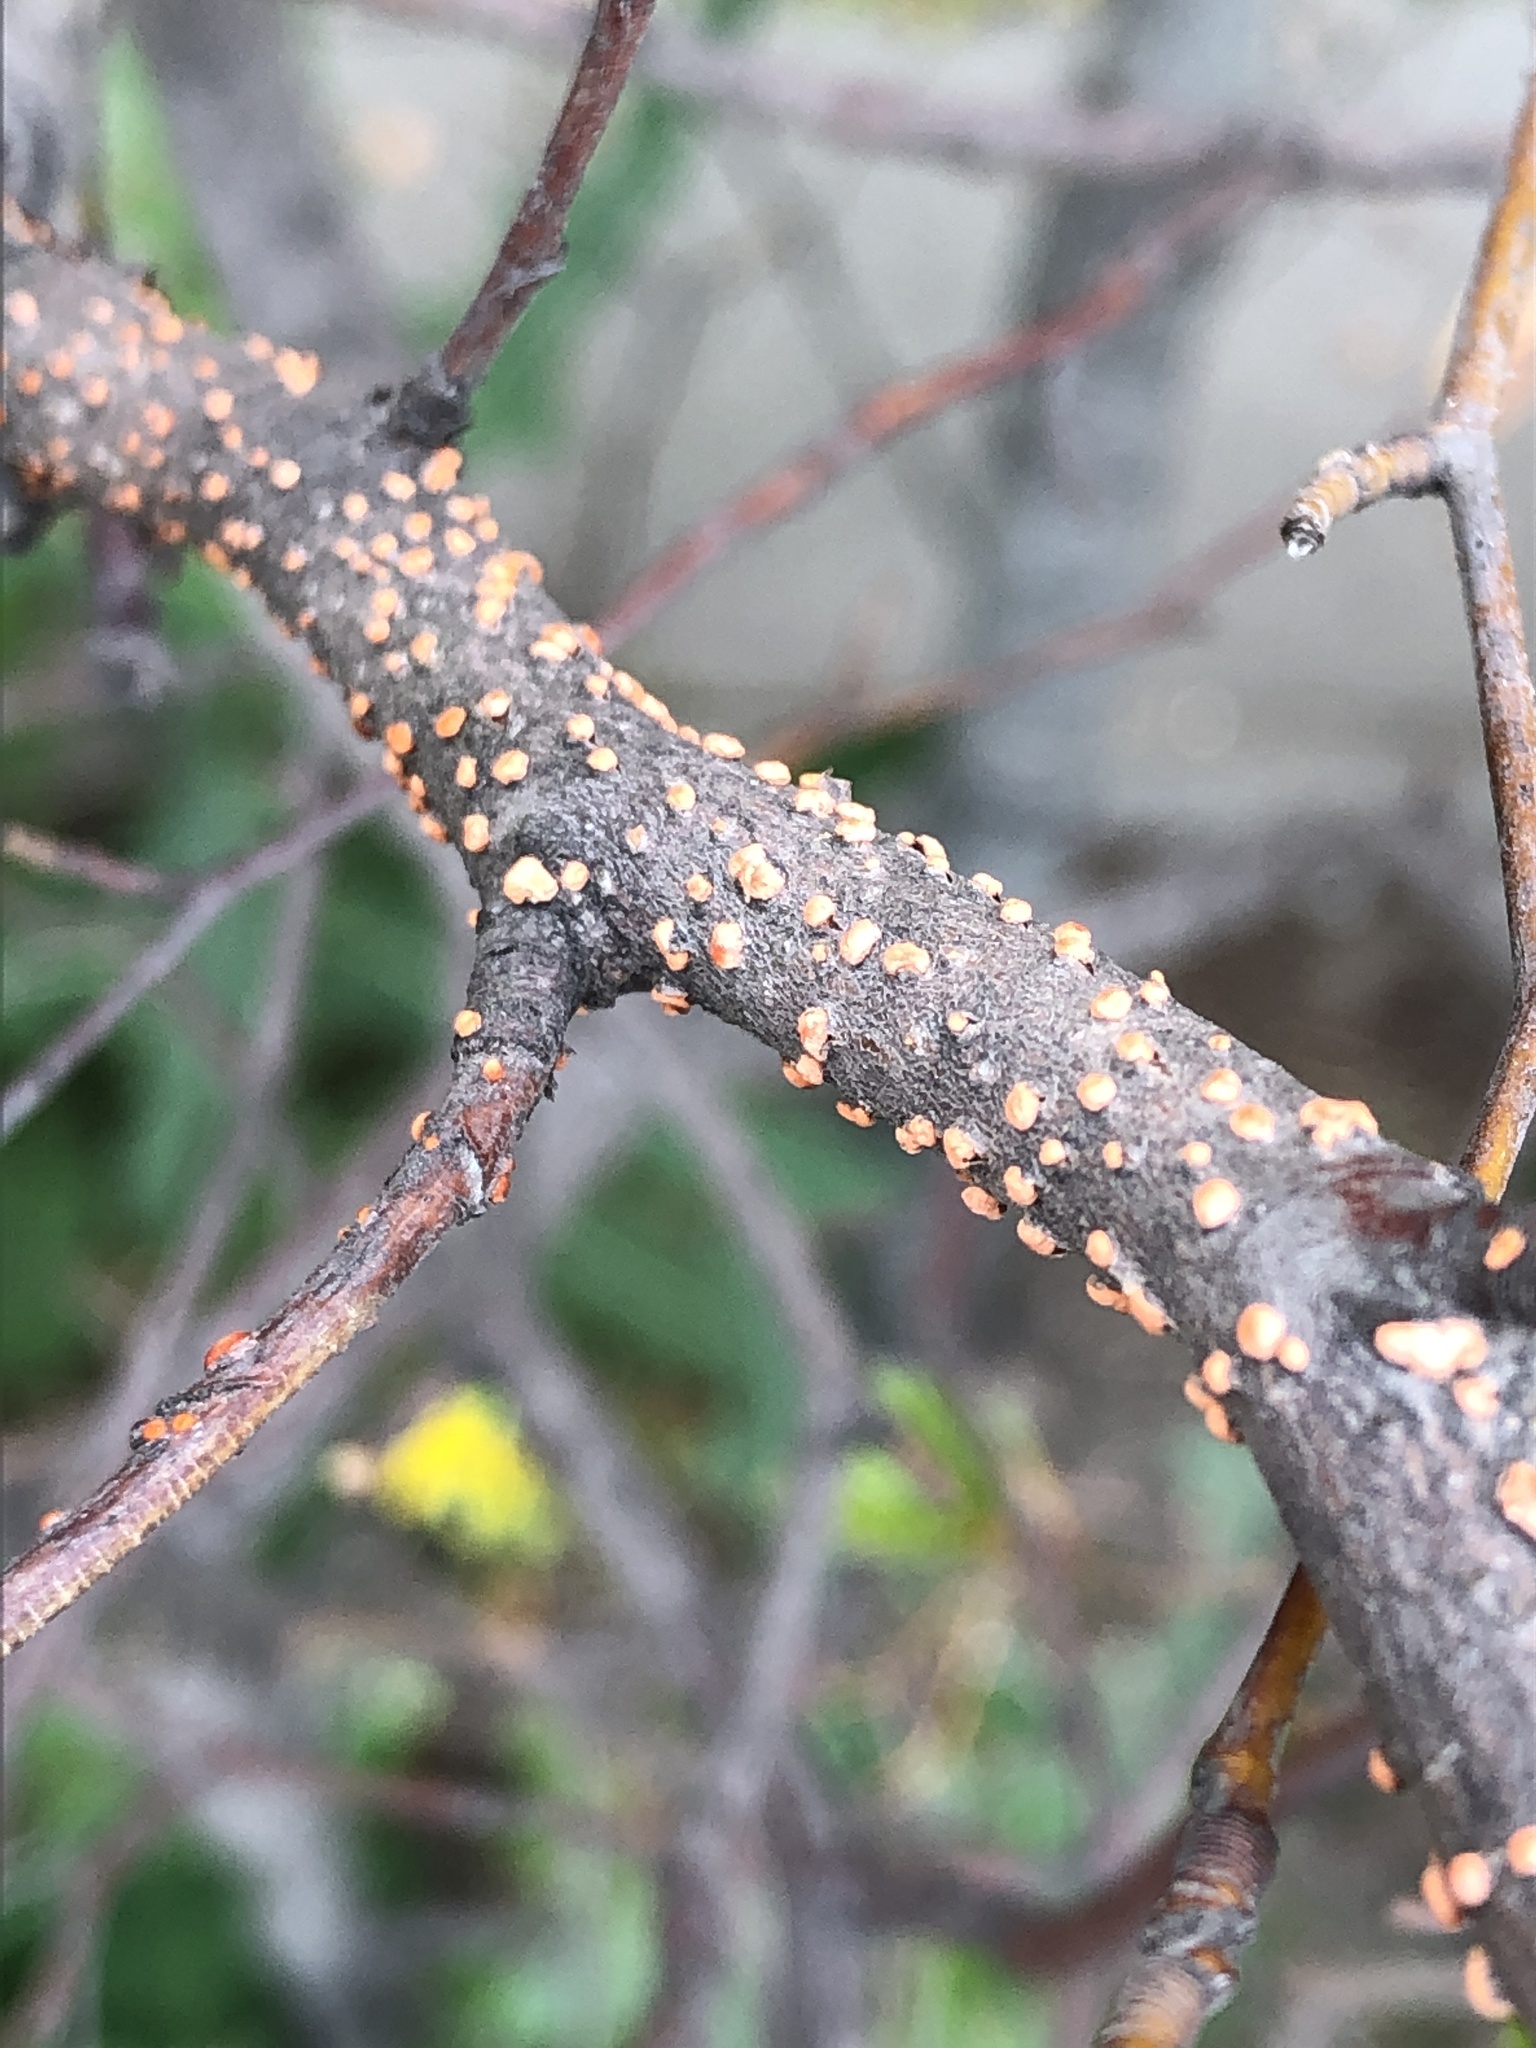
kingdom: Fungi
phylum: Ascomycota
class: Sordariomycetes
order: Hypocreales
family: Nectriaceae
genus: Nectria
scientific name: Nectria cinnabarina
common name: Coral spot
